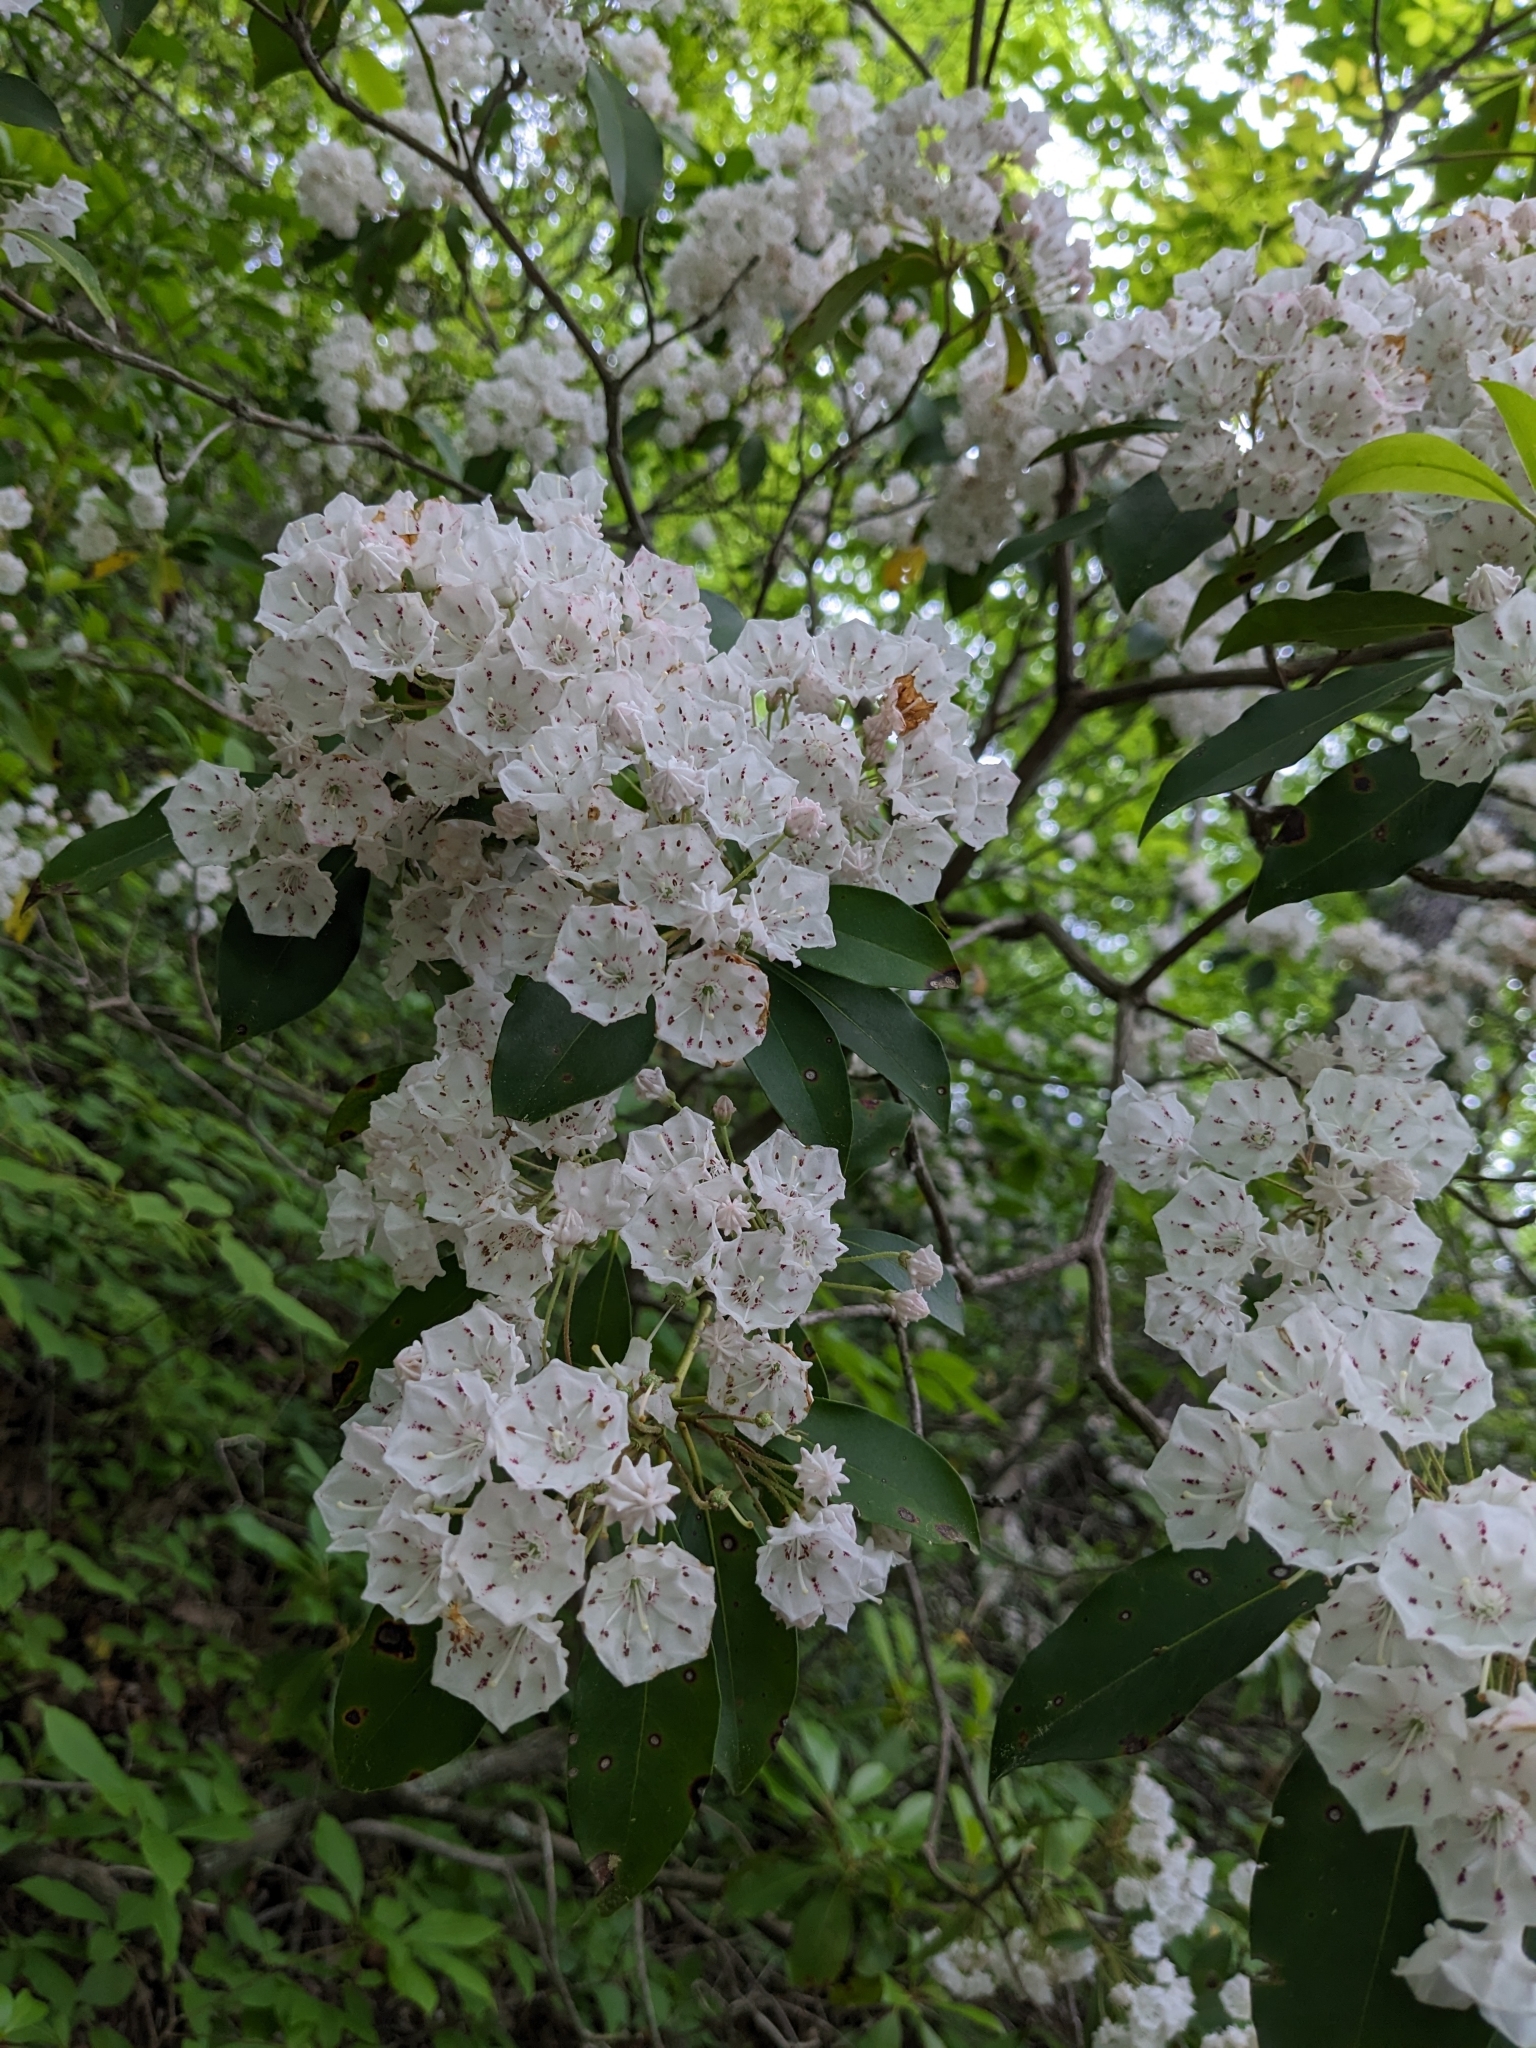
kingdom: Plantae
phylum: Tracheophyta
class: Magnoliopsida
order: Ericales
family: Ericaceae
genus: Kalmia
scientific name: Kalmia latifolia
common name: Mountain-laurel
